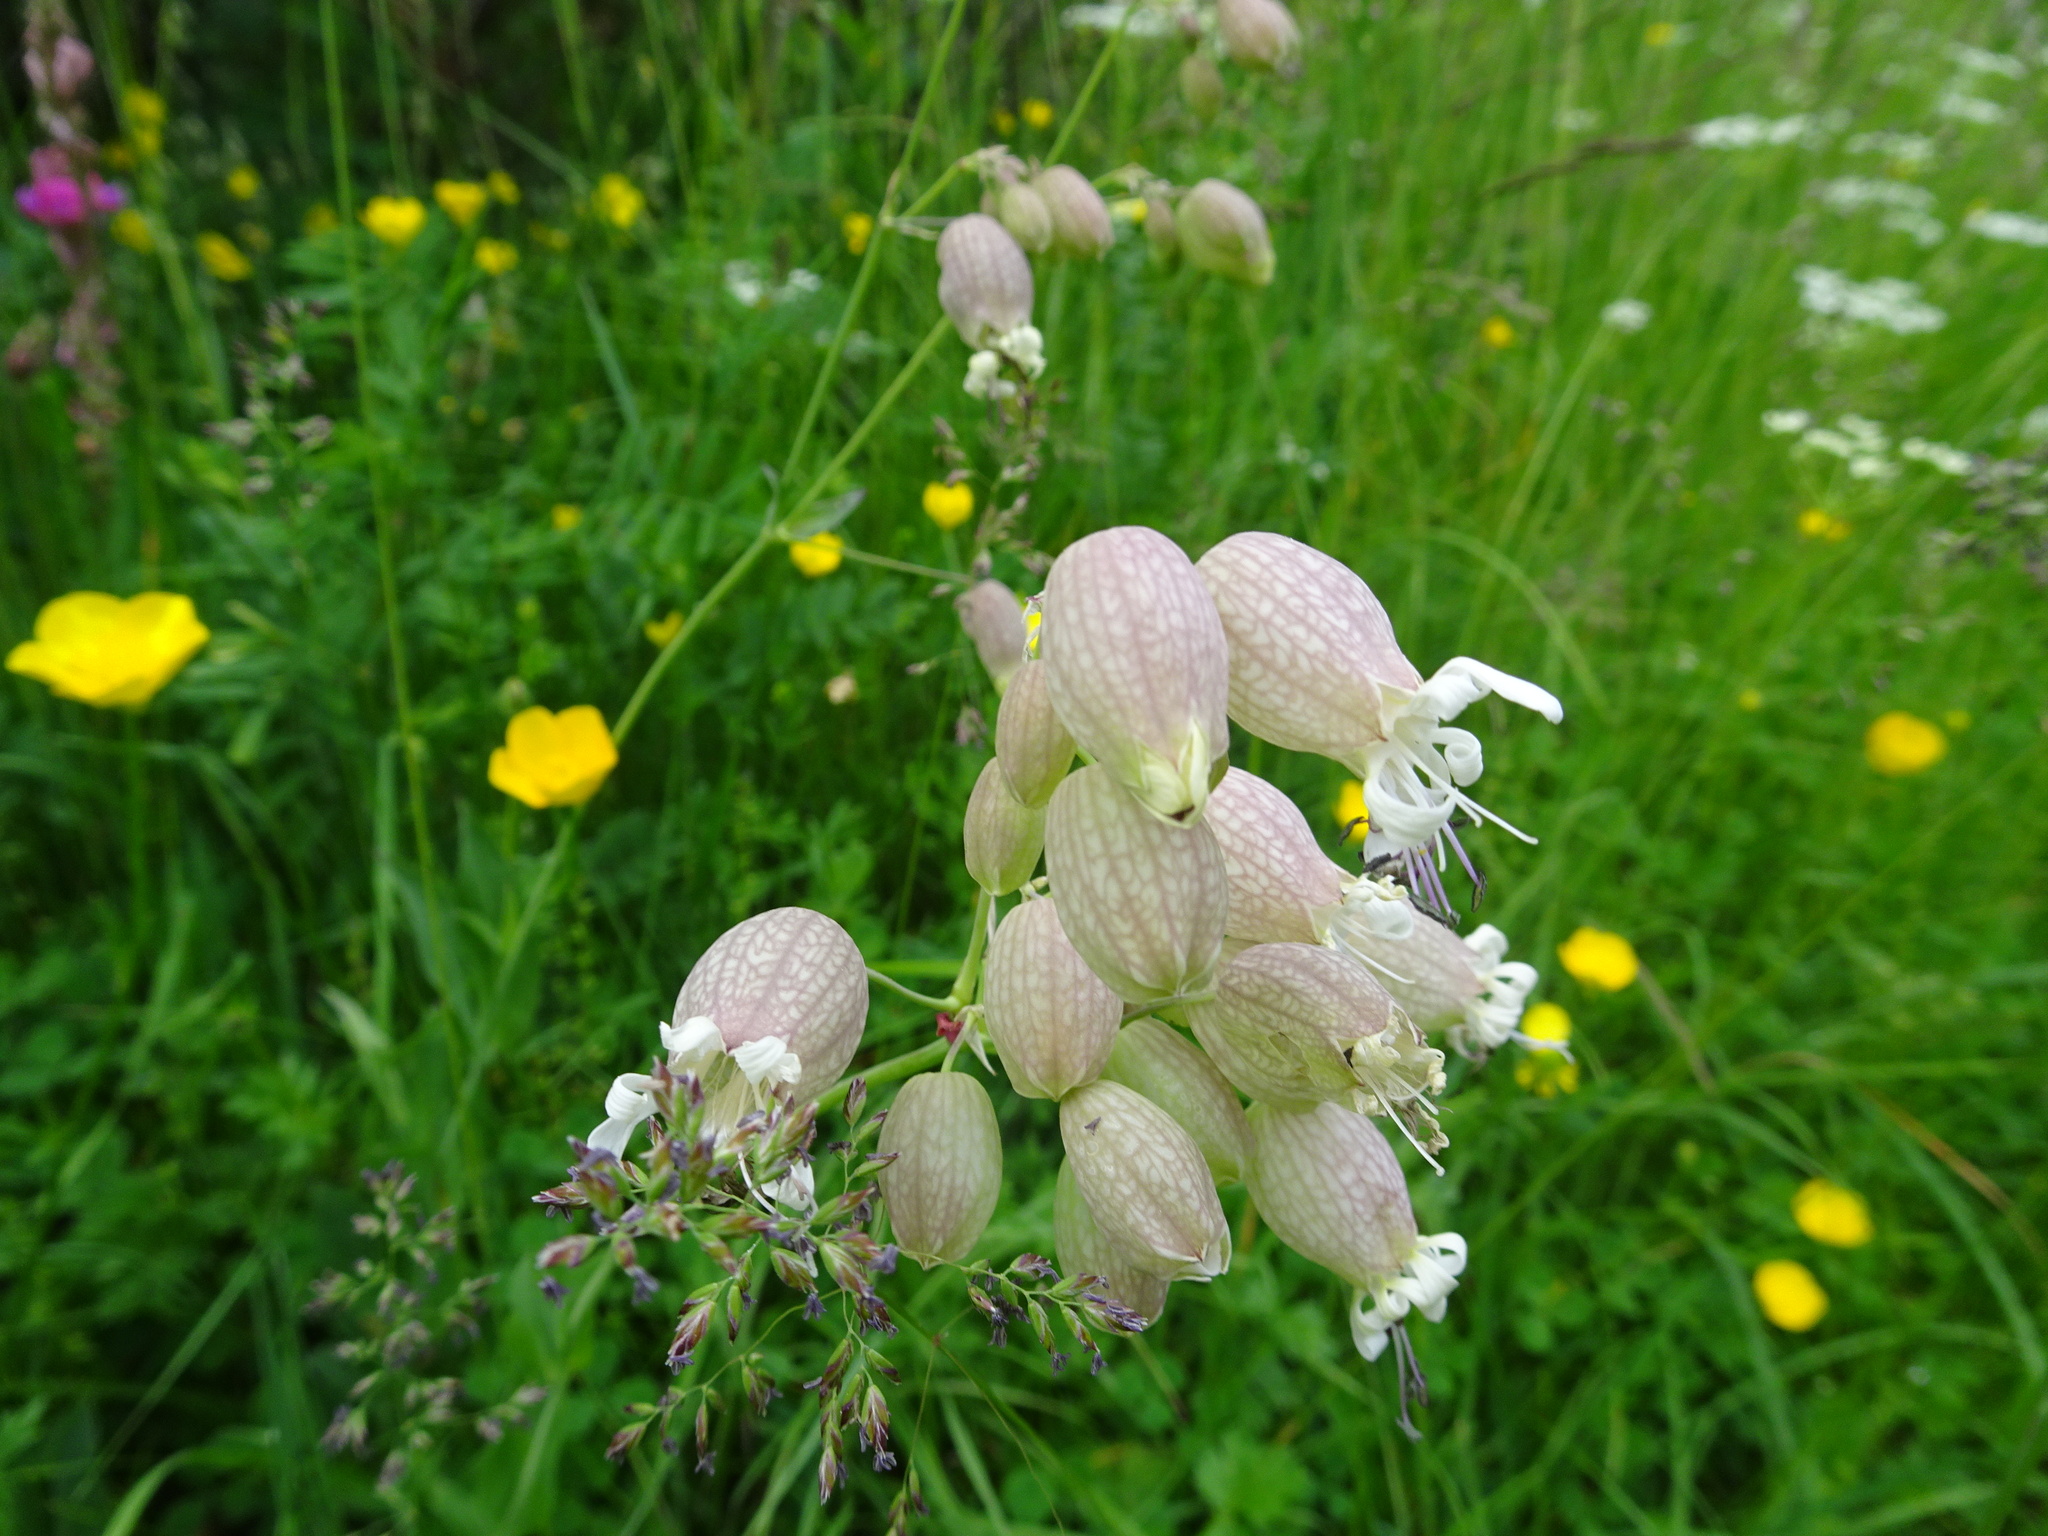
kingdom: Plantae
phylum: Tracheophyta
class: Magnoliopsida
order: Caryophyllales
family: Caryophyllaceae
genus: Silene
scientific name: Silene vulgaris
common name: Bladder campion
